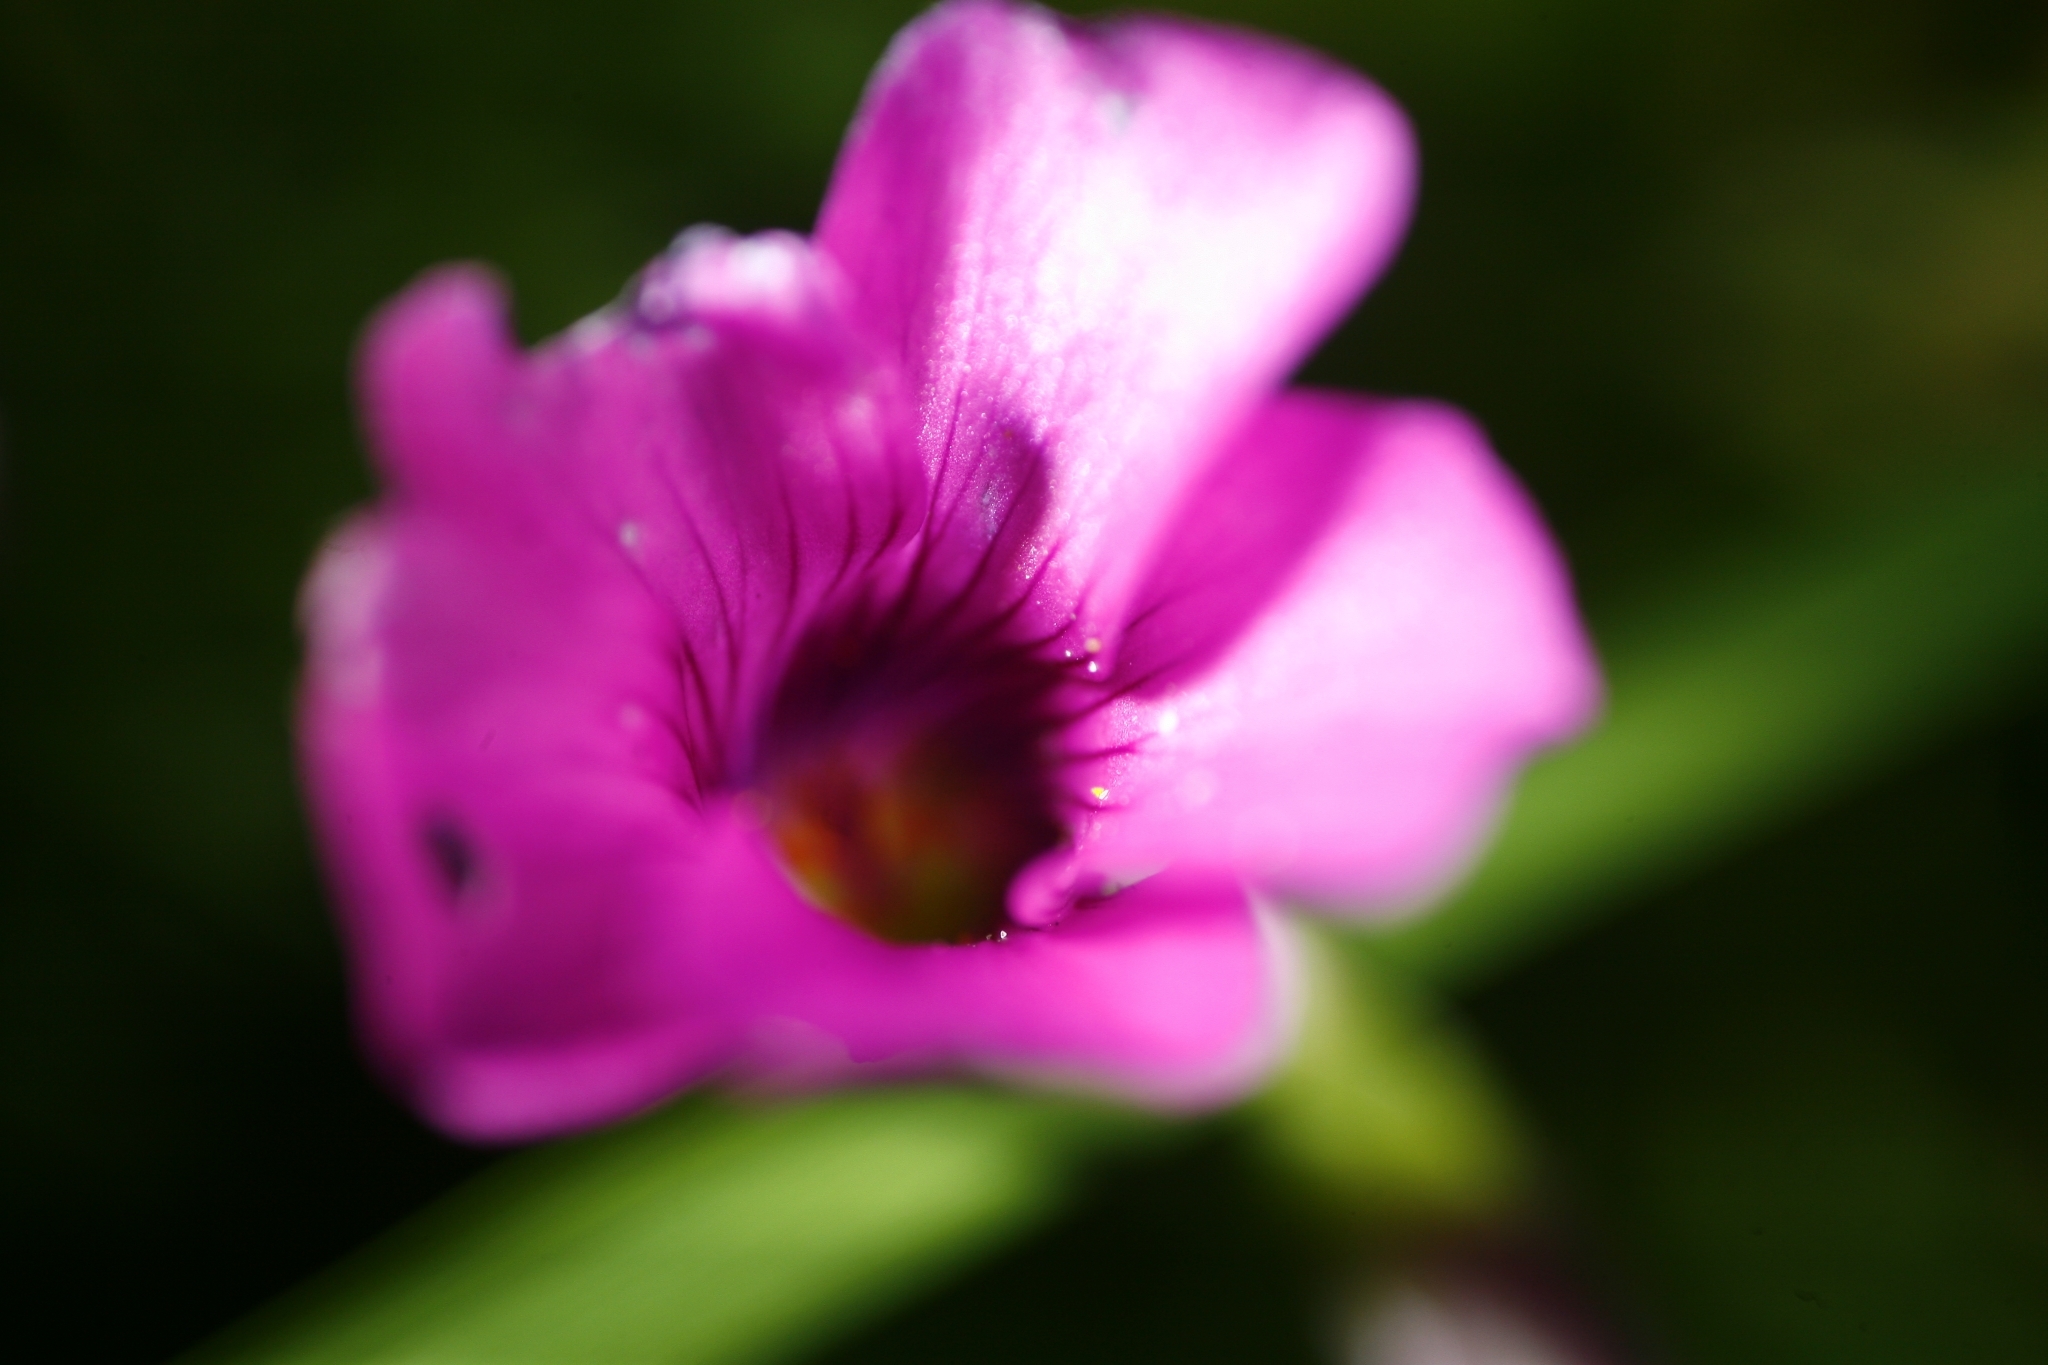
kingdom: Plantae
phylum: Tracheophyta
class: Magnoliopsida
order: Oxalidales
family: Oxalidaceae
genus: Oxalis
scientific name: Oxalis articulata
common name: Pink-sorrel
